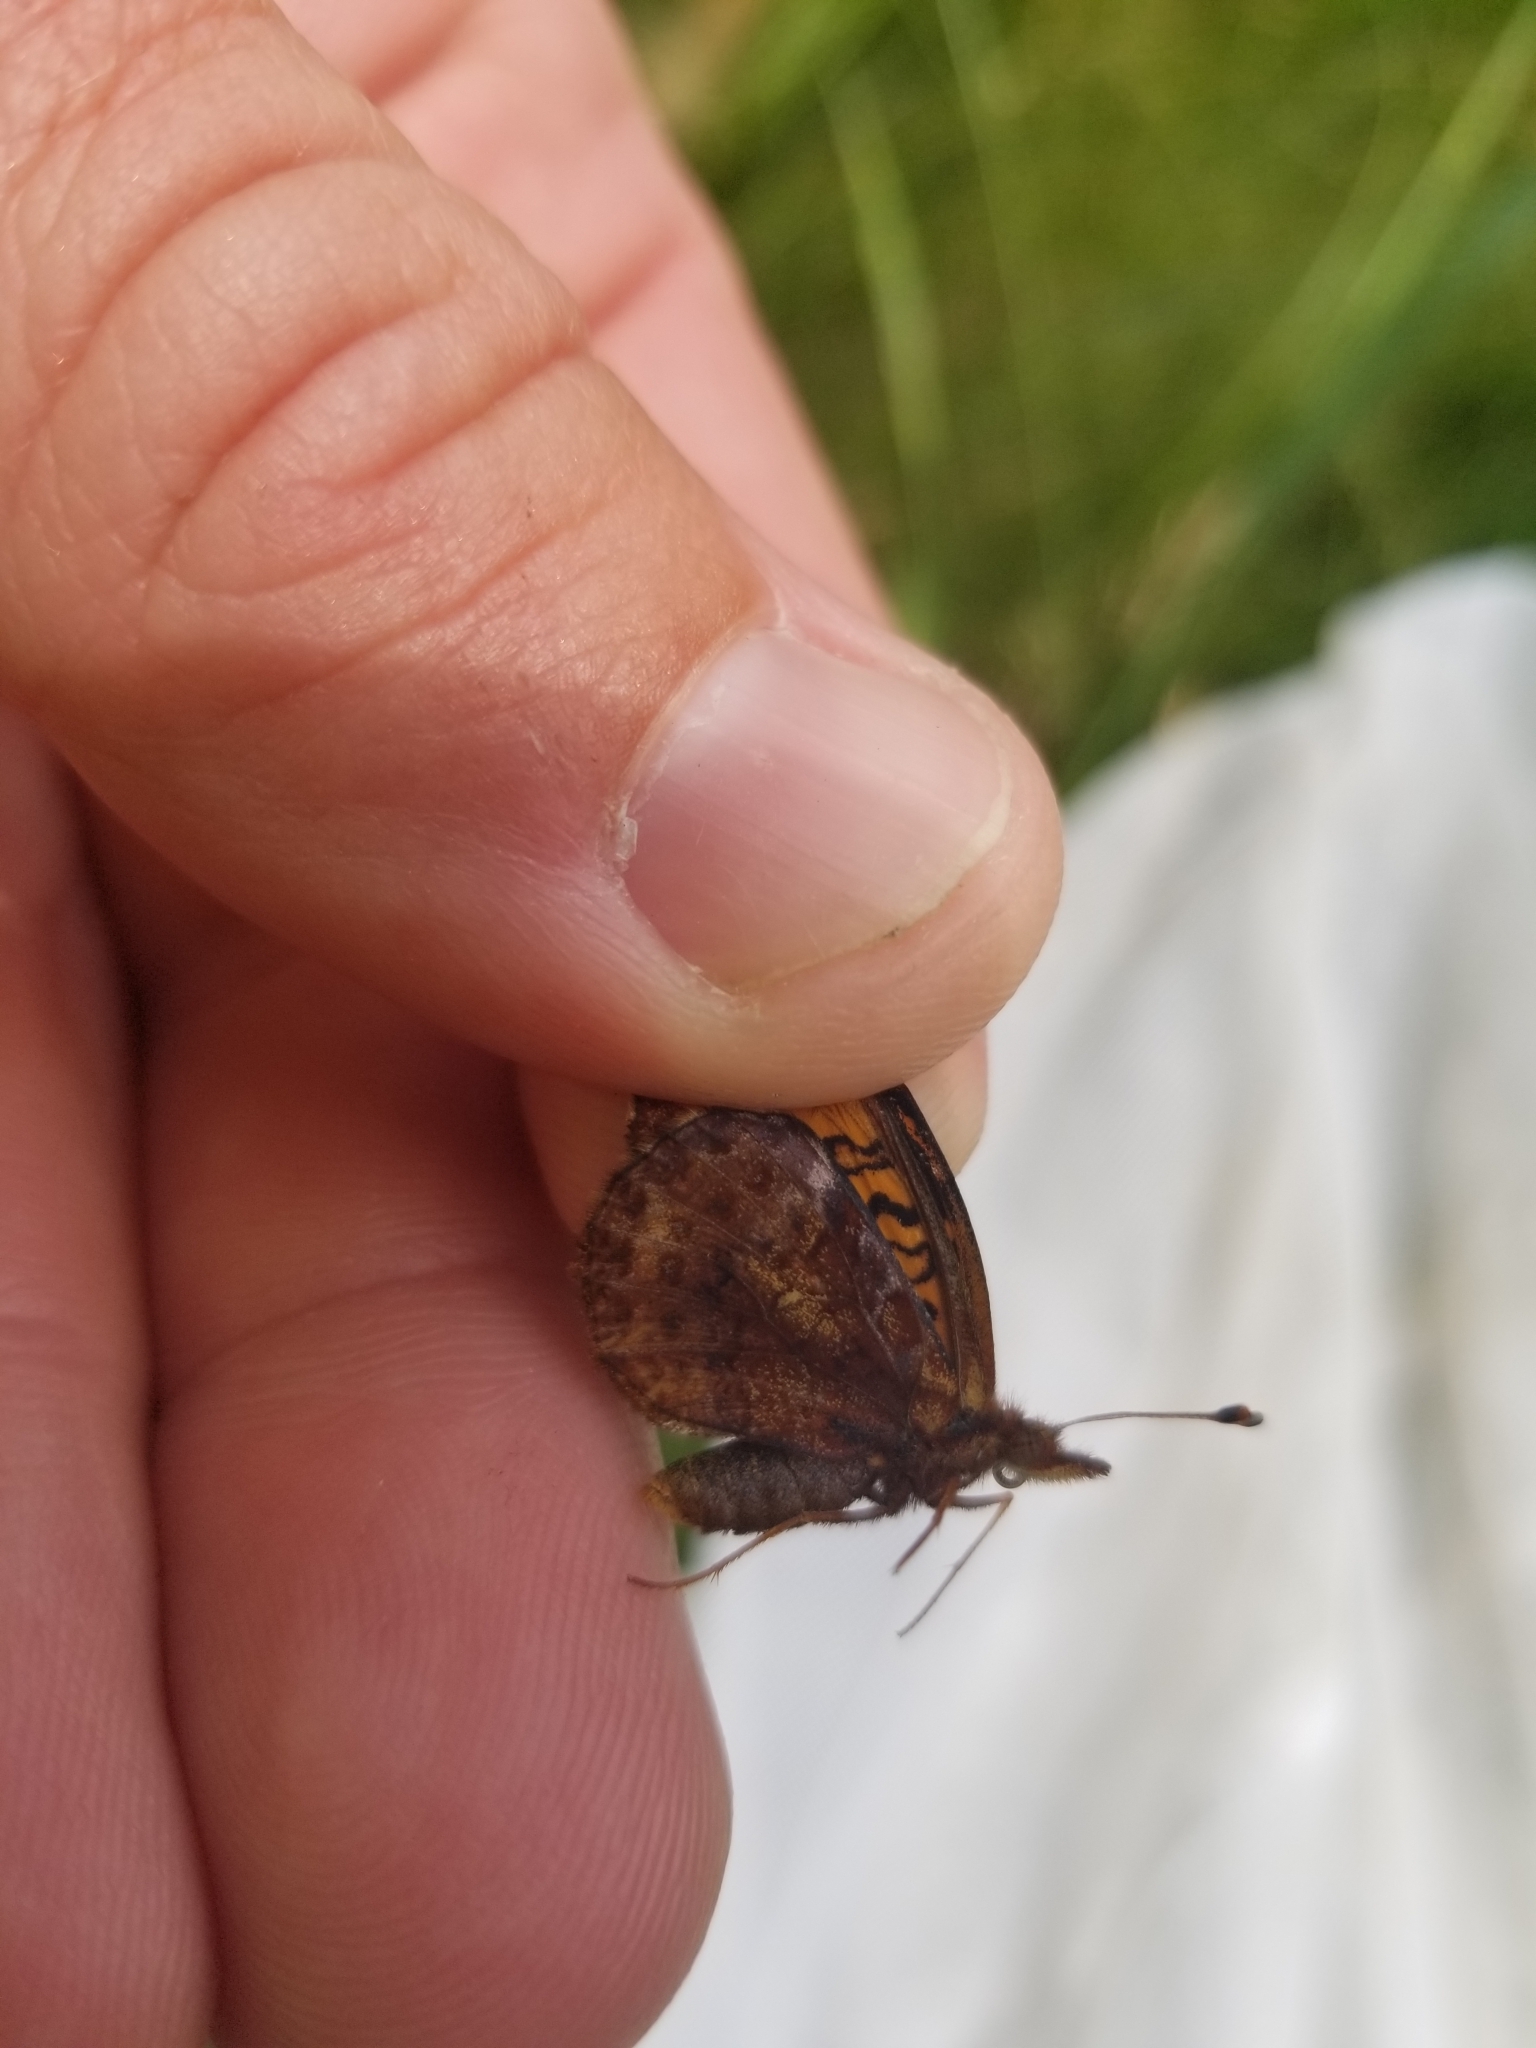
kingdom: Animalia
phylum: Arthropoda
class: Insecta
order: Lepidoptera
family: Nymphalidae
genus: Clossiana
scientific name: Clossiana toddi
